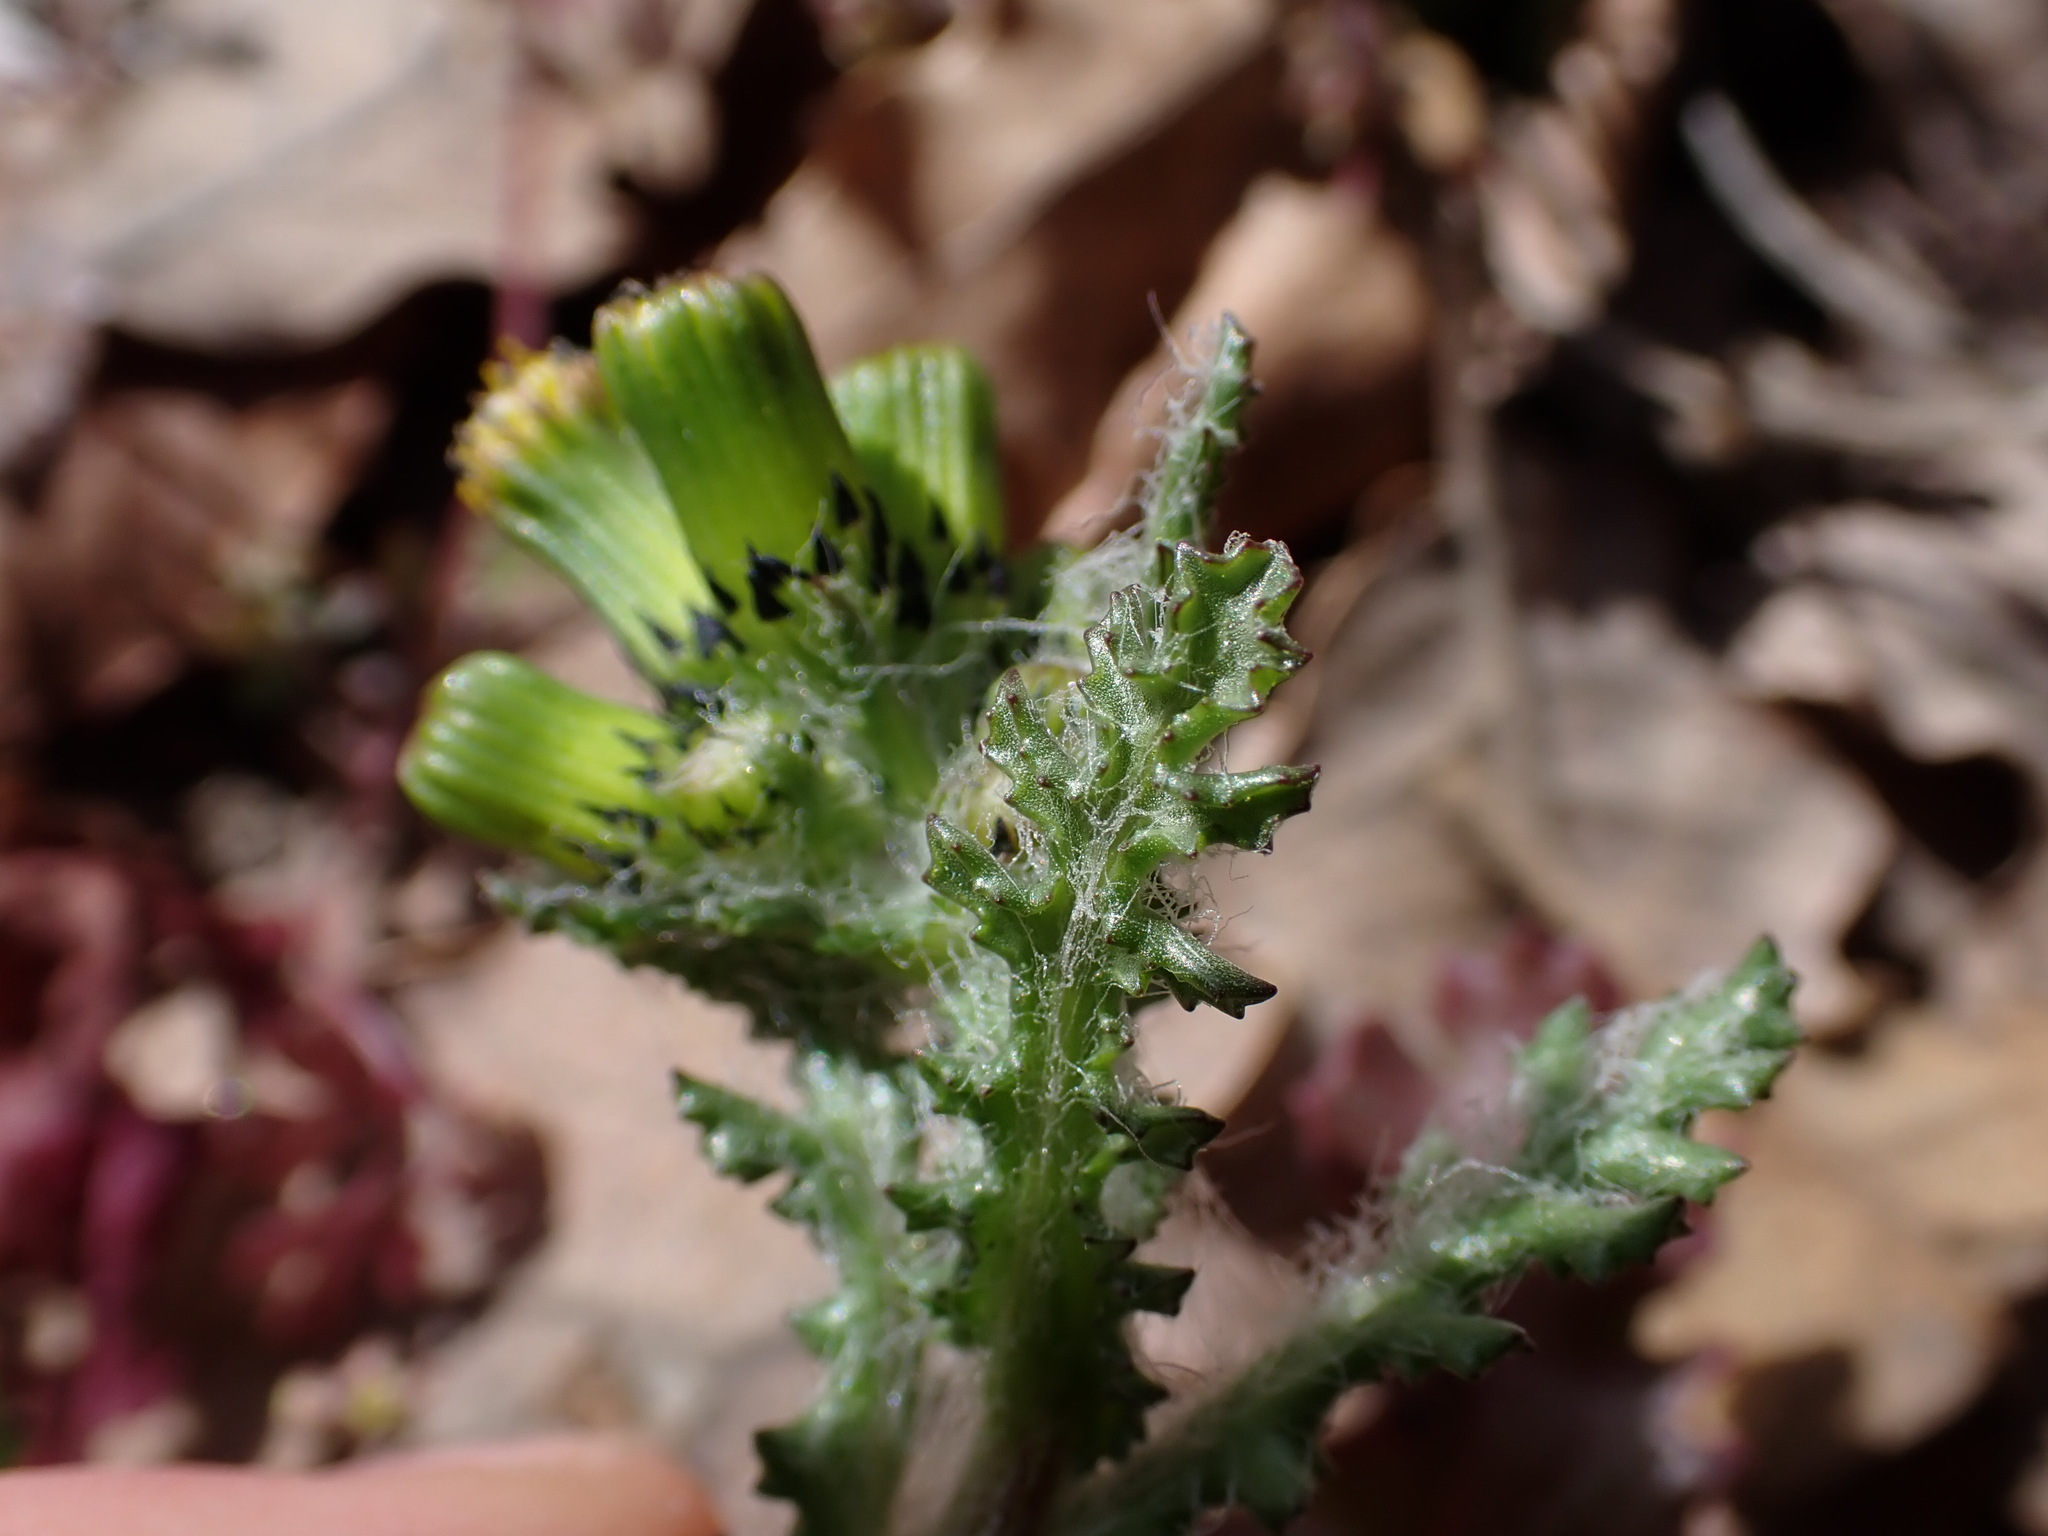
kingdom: Plantae
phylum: Tracheophyta
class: Magnoliopsida
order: Asterales
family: Asteraceae
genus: Senecio
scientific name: Senecio vulgaris
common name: Old-man-in-the-spring
